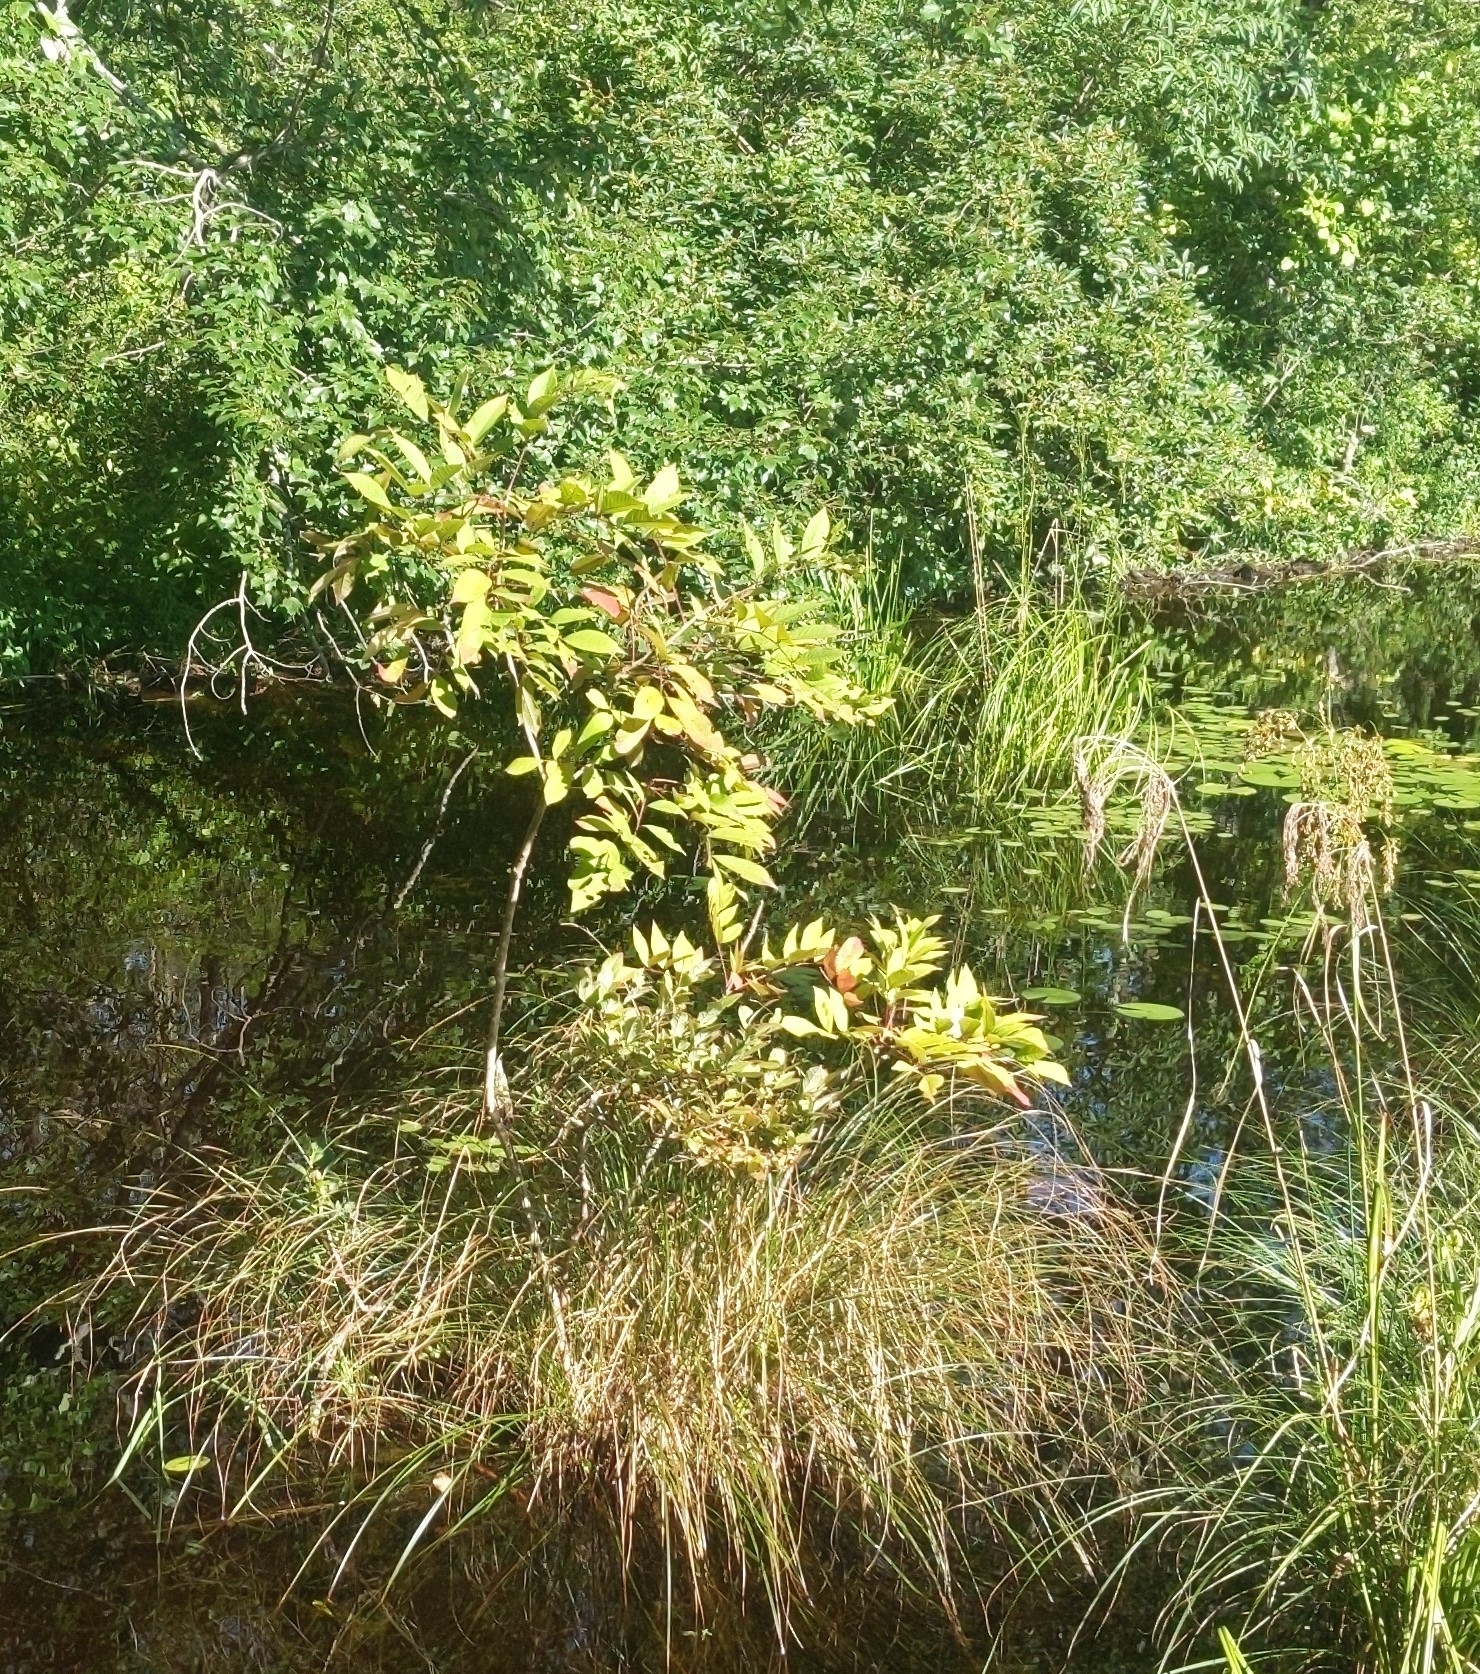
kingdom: Plantae
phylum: Tracheophyta
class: Magnoliopsida
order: Sapindales
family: Anacardiaceae
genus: Toxicodendron
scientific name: Toxicodendron vernix
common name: Poison sumac
